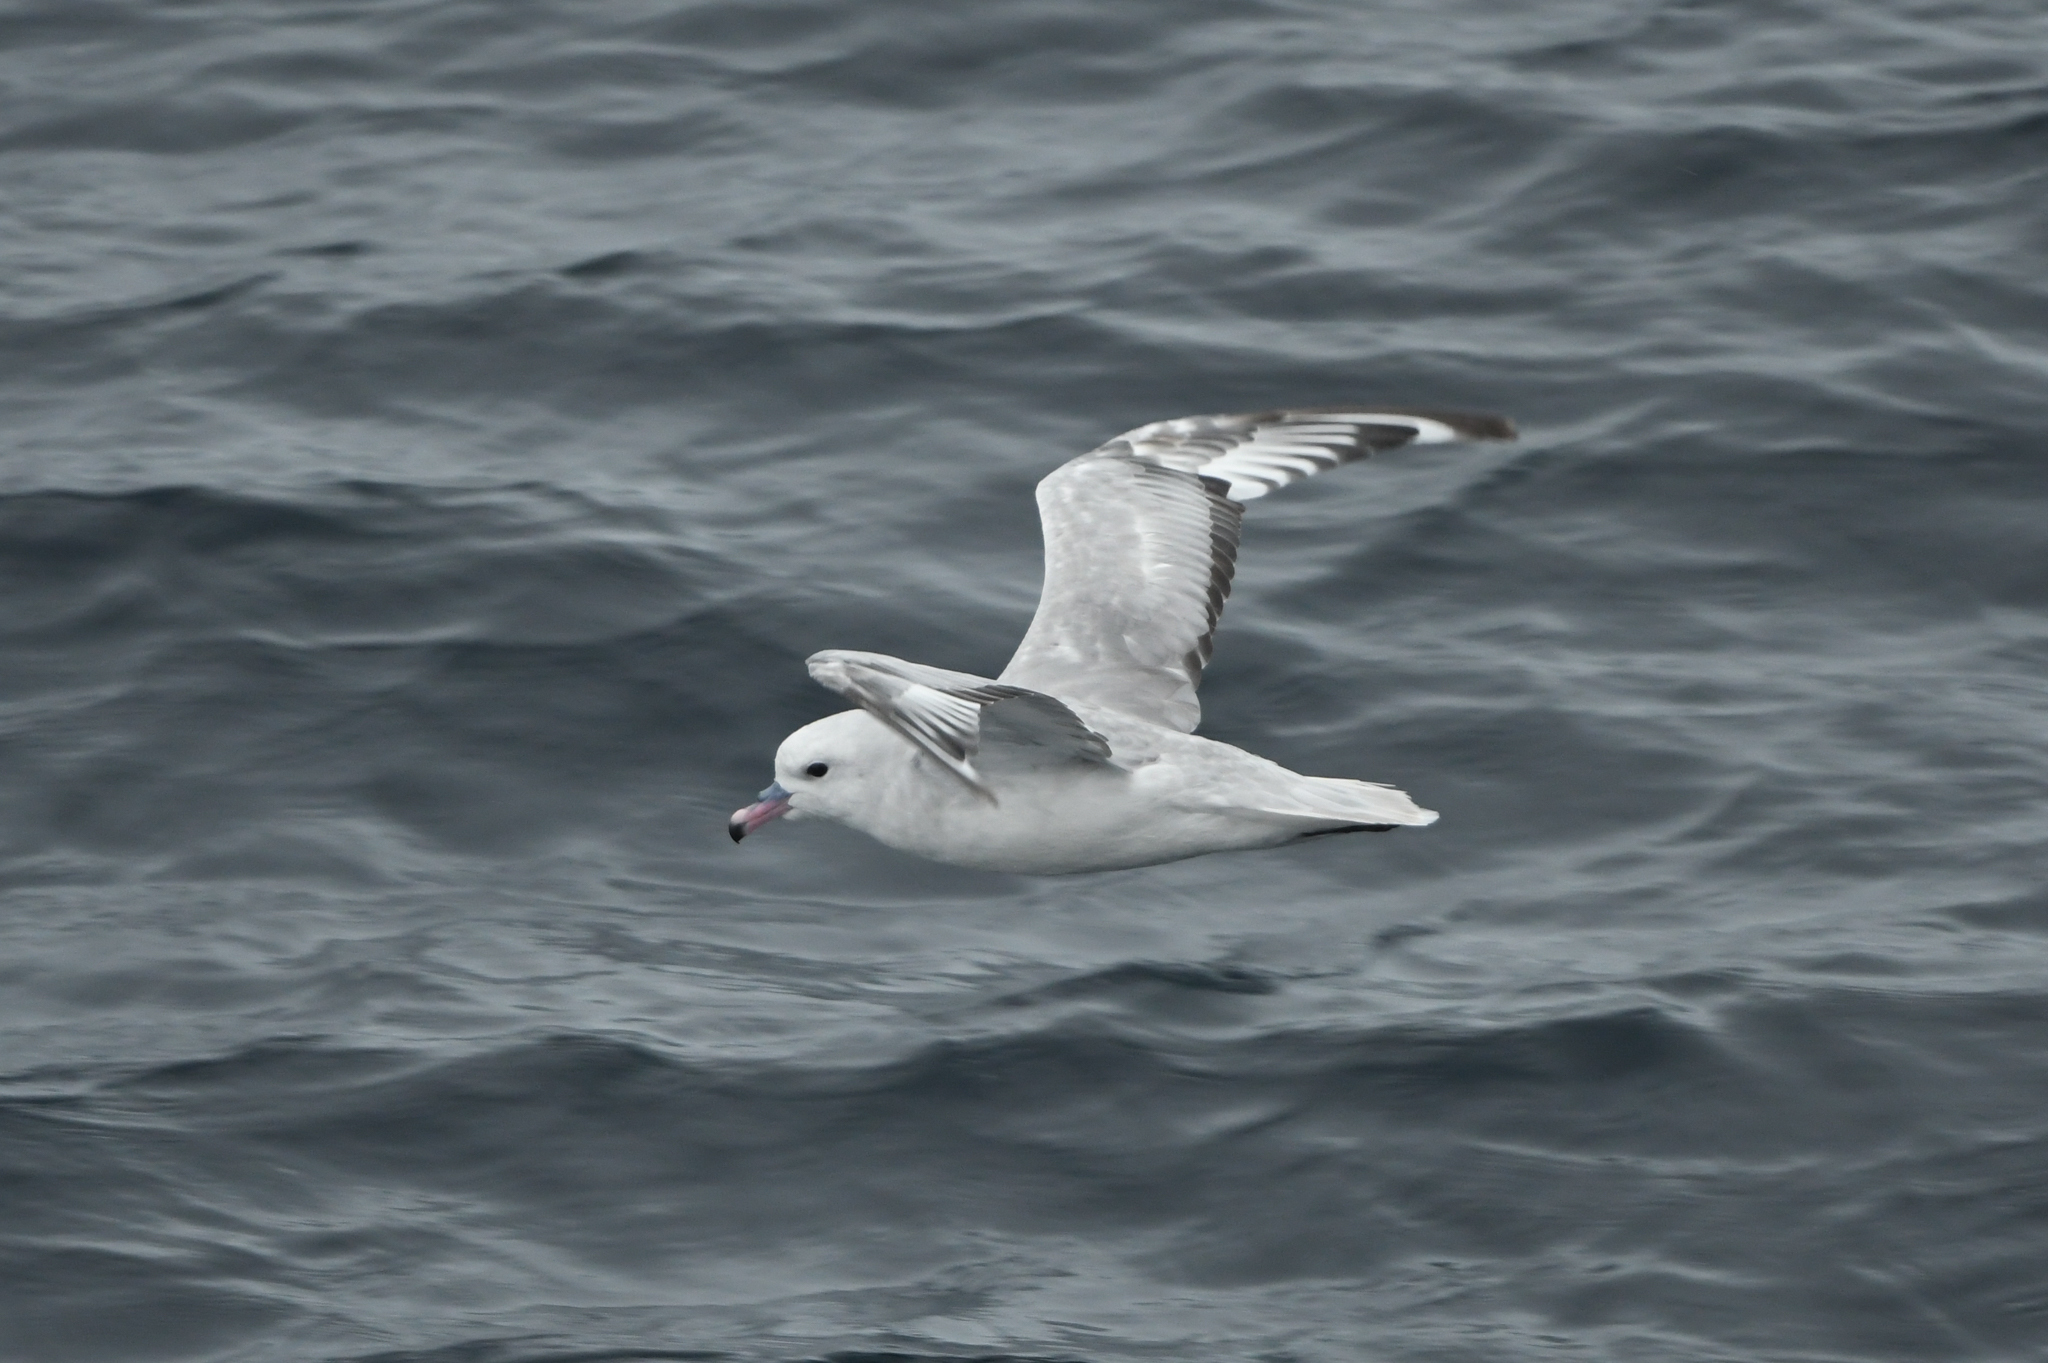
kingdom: Animalia
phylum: Chordata
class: Aves
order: Procellariiformes
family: Procellariidae
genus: Fulmarus
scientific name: Fulmarus glacialoides
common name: Southern fulmar
